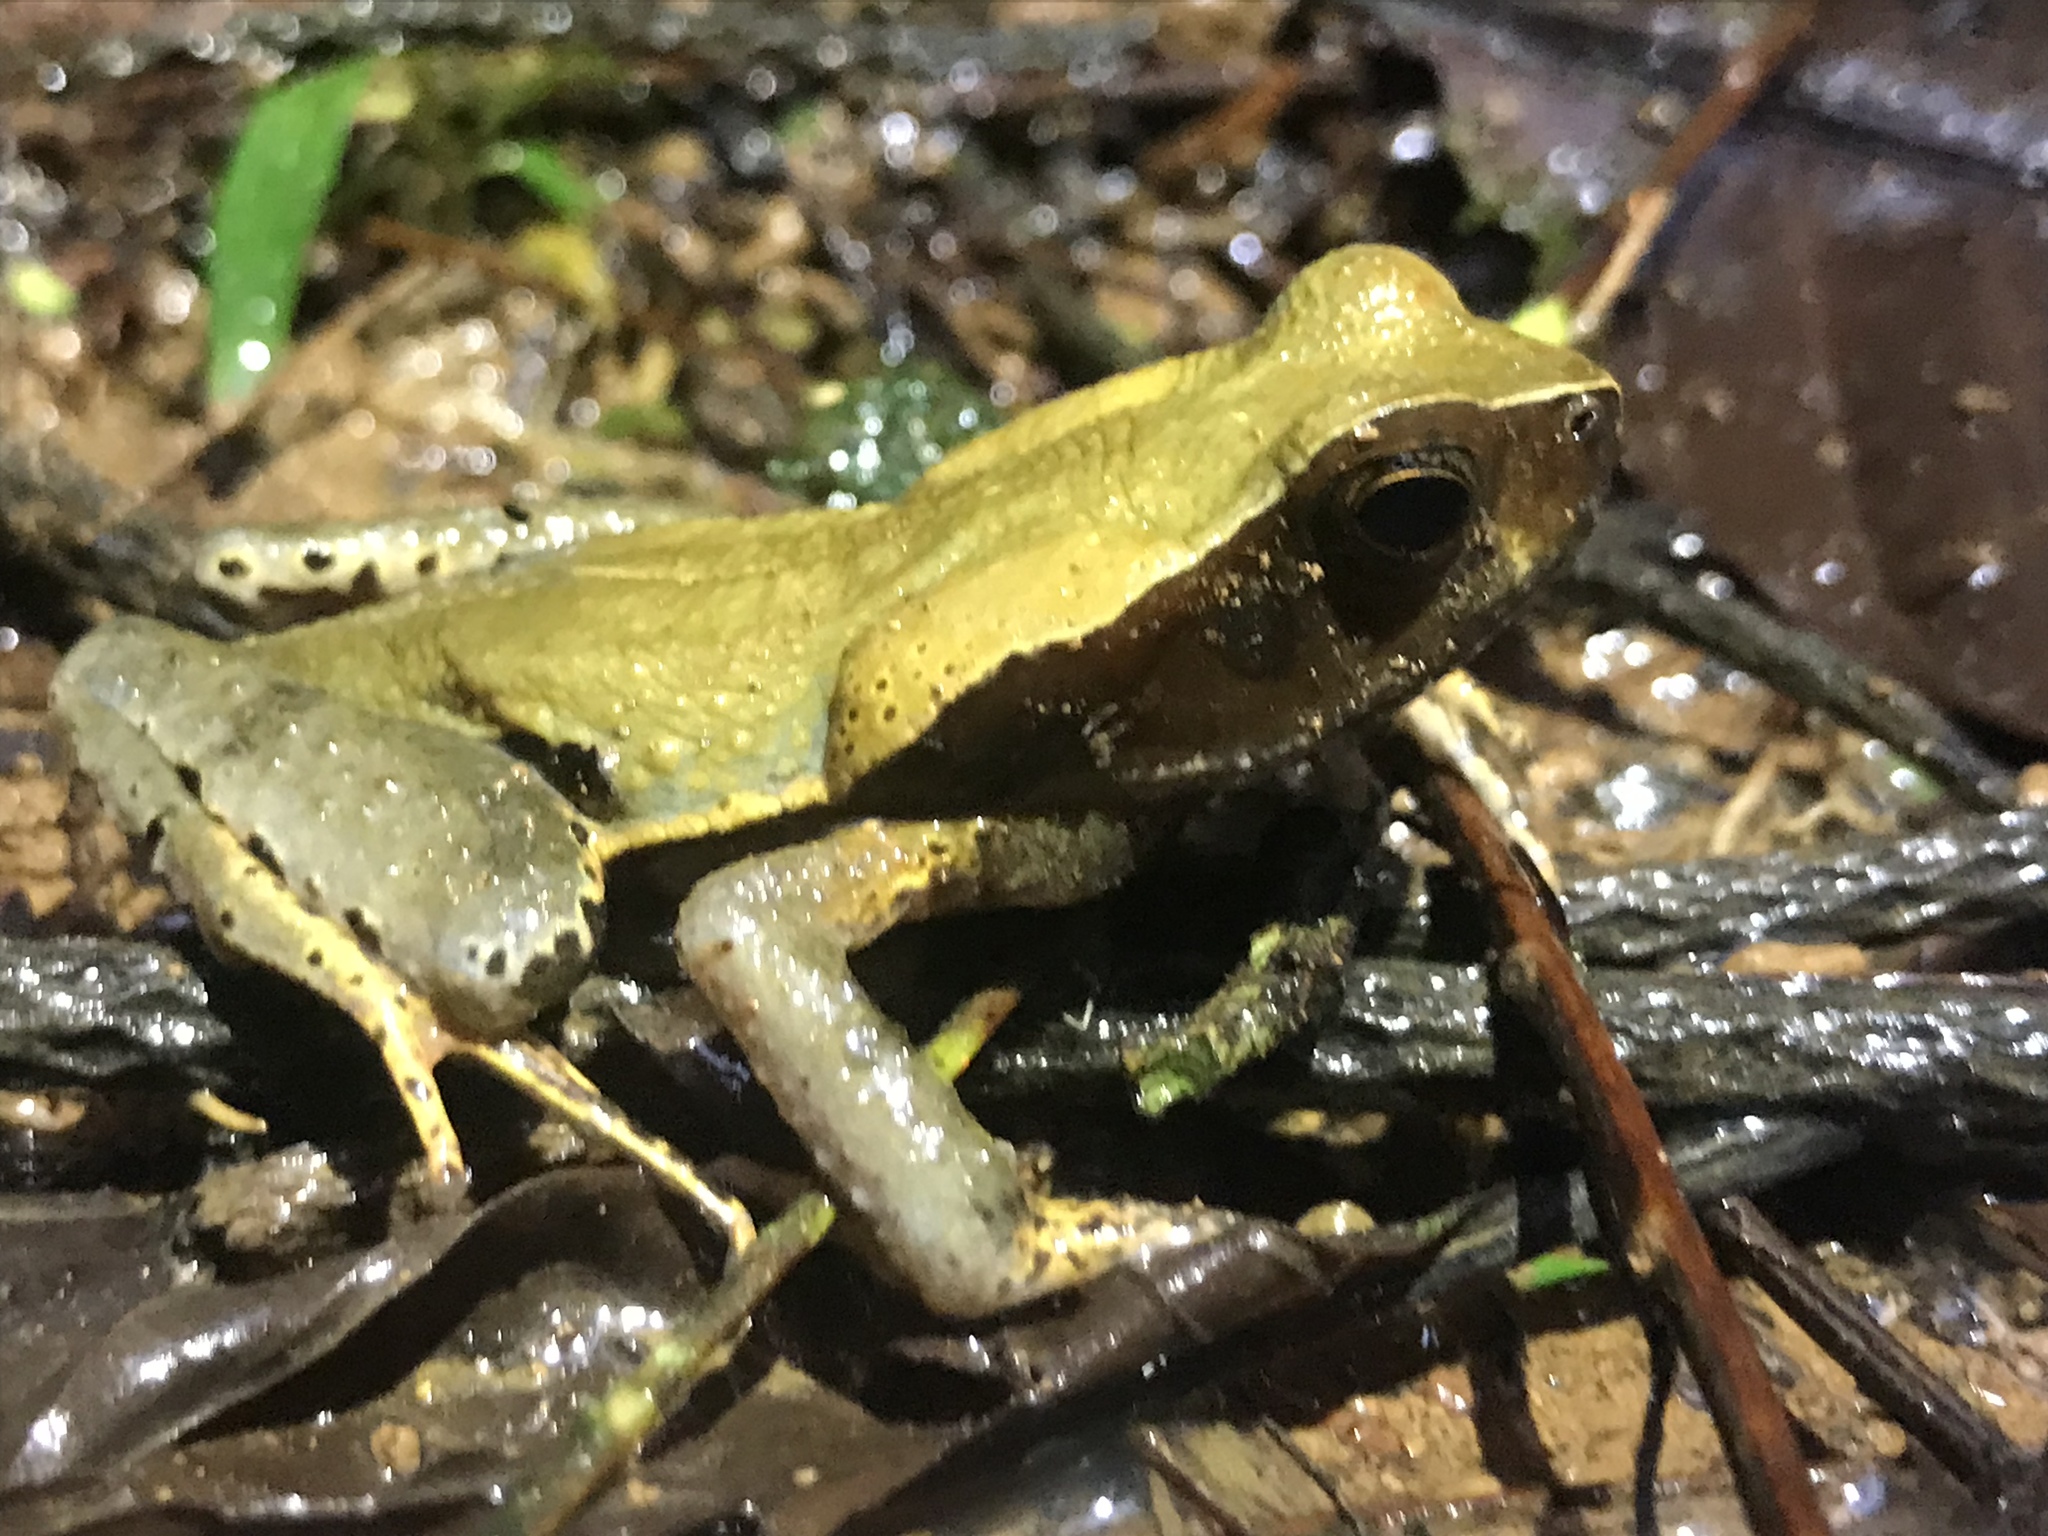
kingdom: Animalia
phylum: Chordata
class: Amphibia
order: Anura
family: Bufonidae
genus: Rhaebo
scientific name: Rhaebo haematiticus
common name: Truando toad
